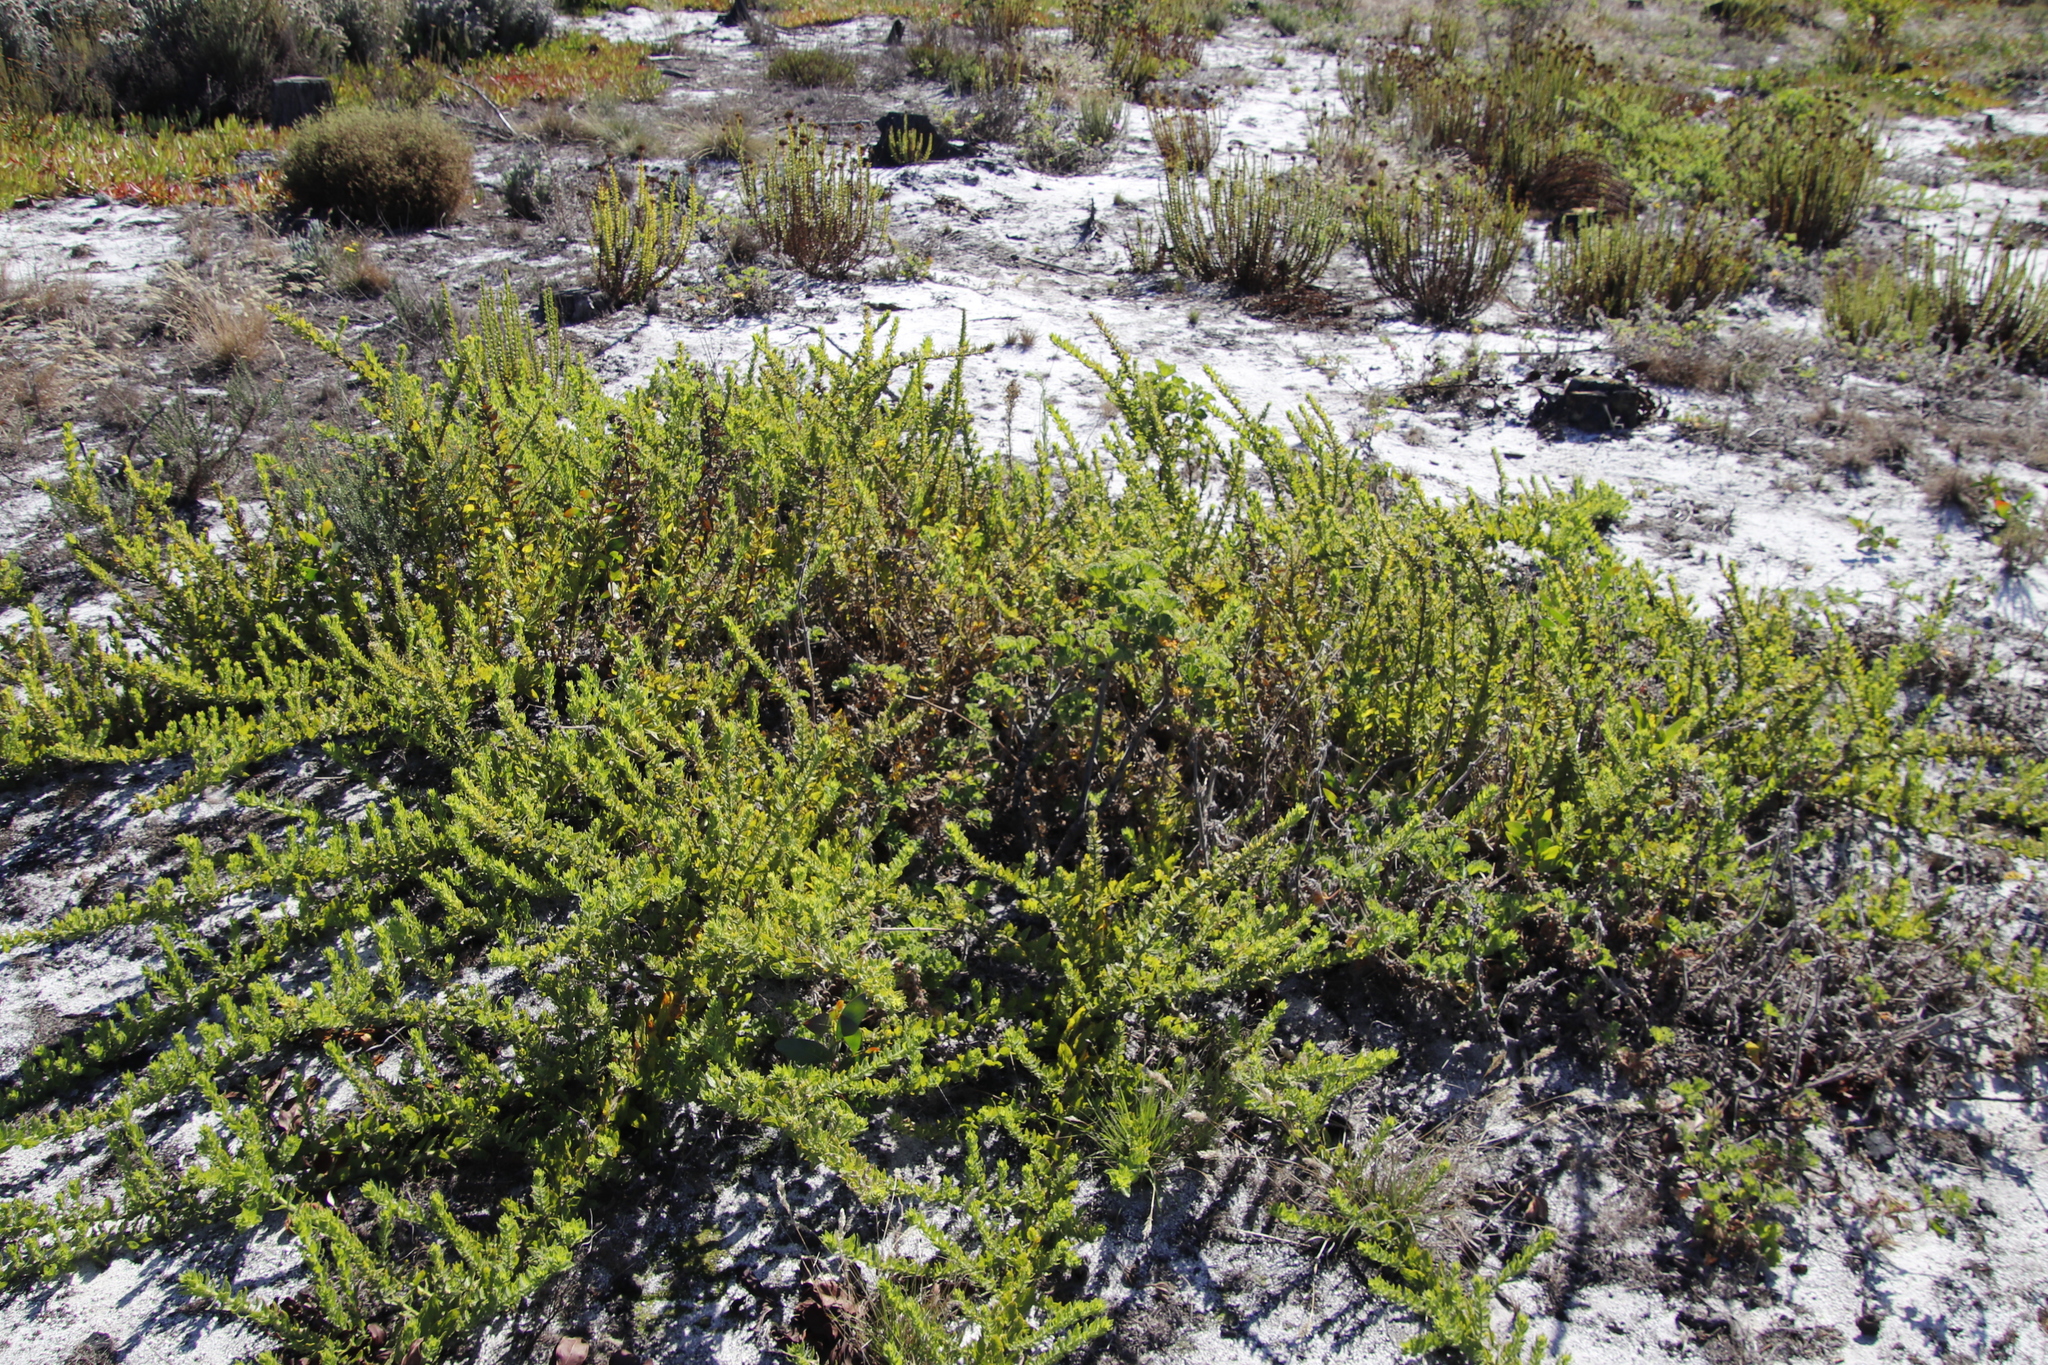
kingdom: Plantae
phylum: Tracheophyta
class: Magnoliopsida
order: Lamiales
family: Scrophulariaceae
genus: Oftia
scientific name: Oftia africana
